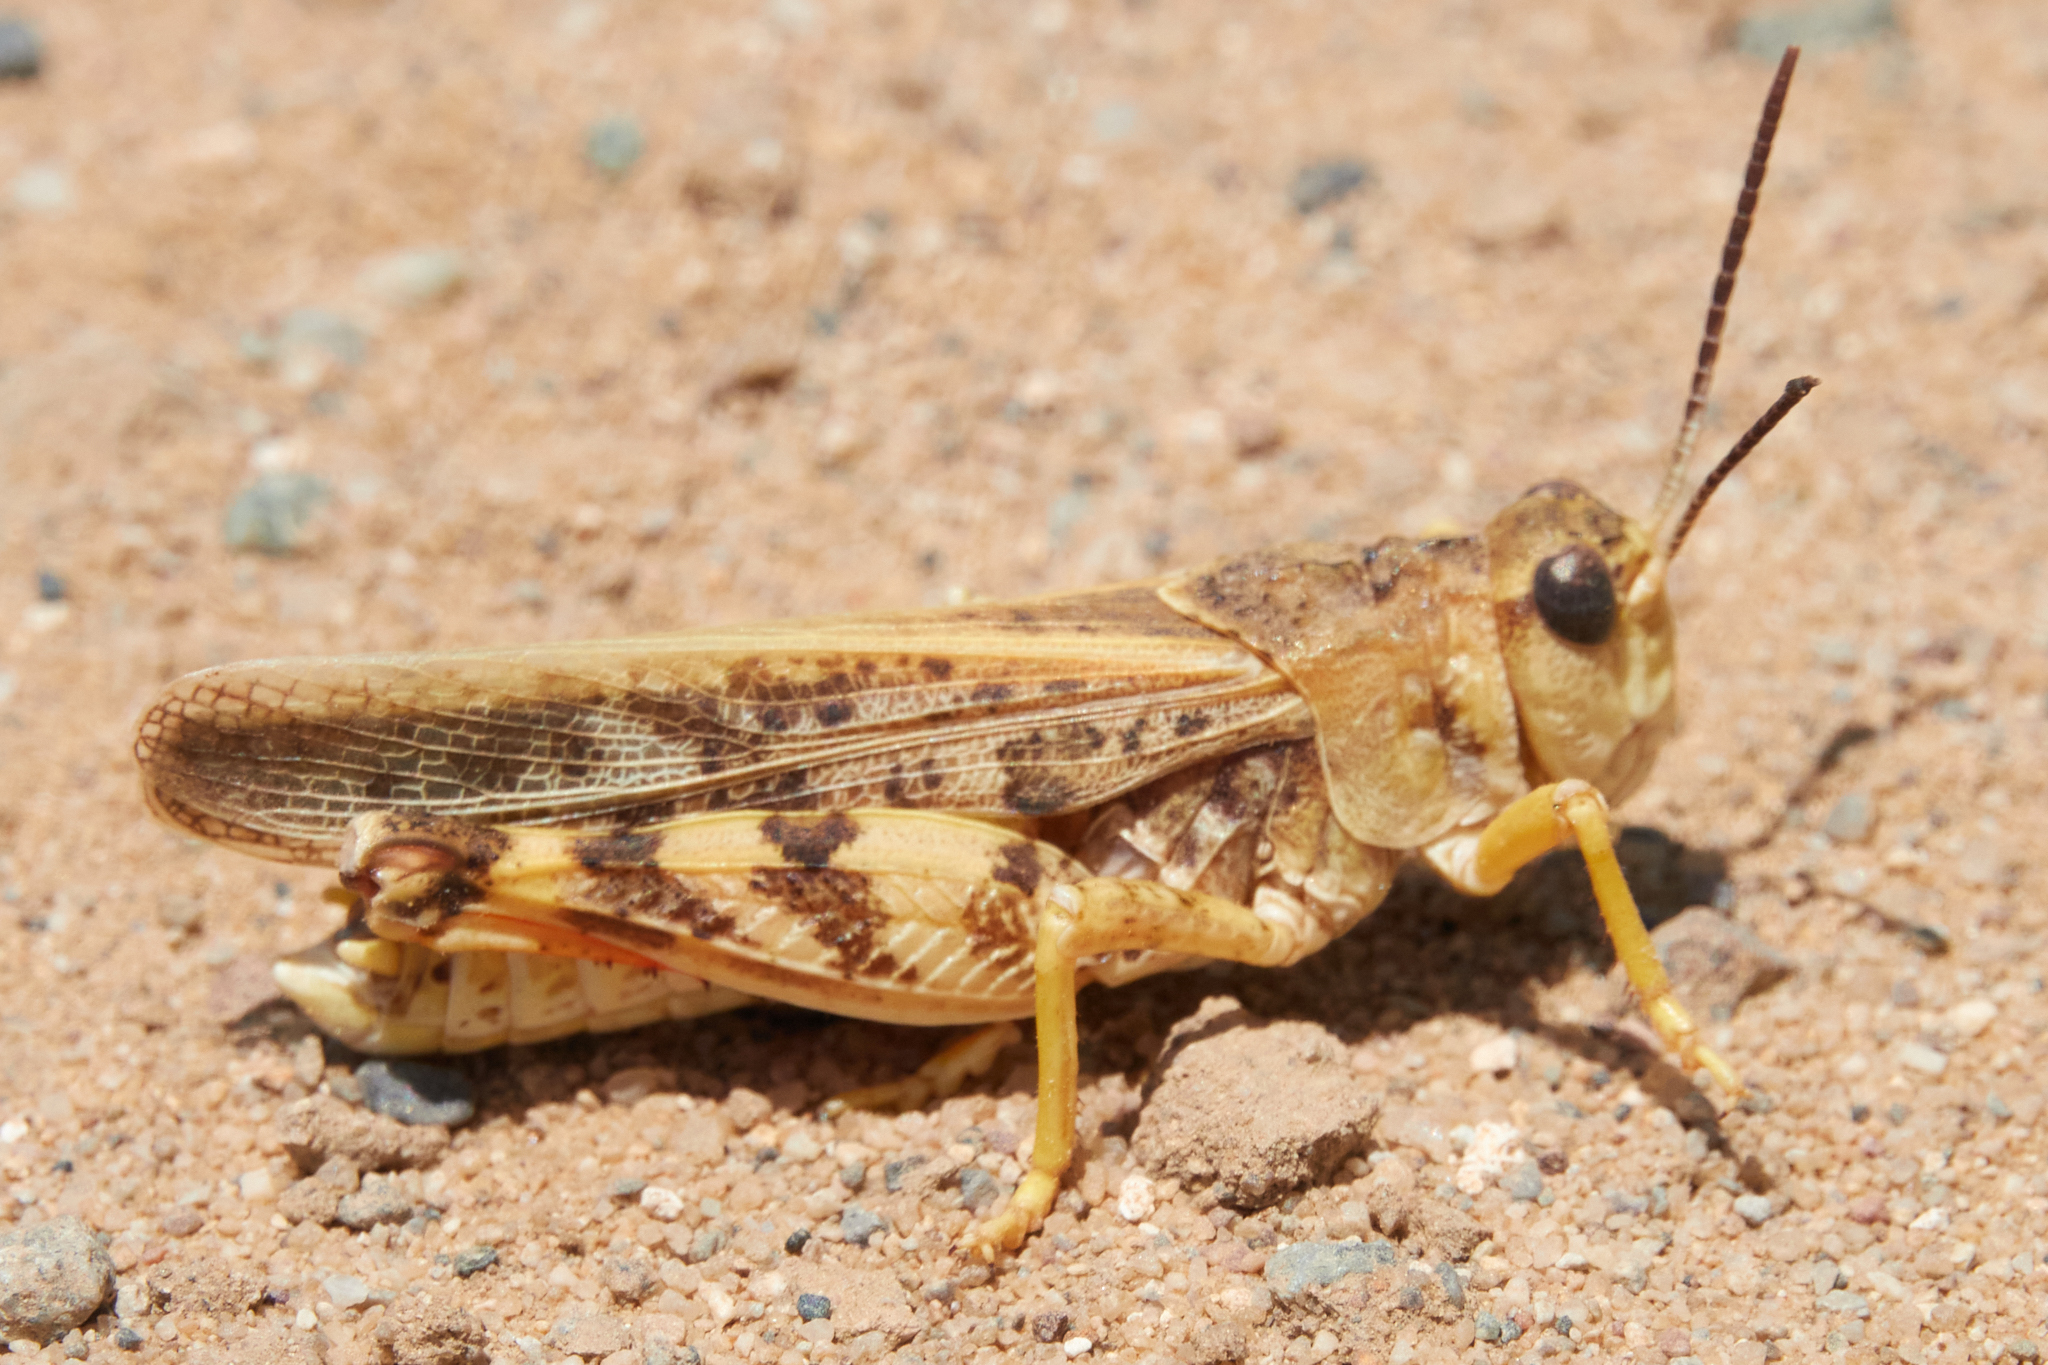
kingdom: Animalia
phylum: Arthropoda
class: Insecta
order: Orthoptera
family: Acrididae
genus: Sticthippus
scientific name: Sticthippus californicus
